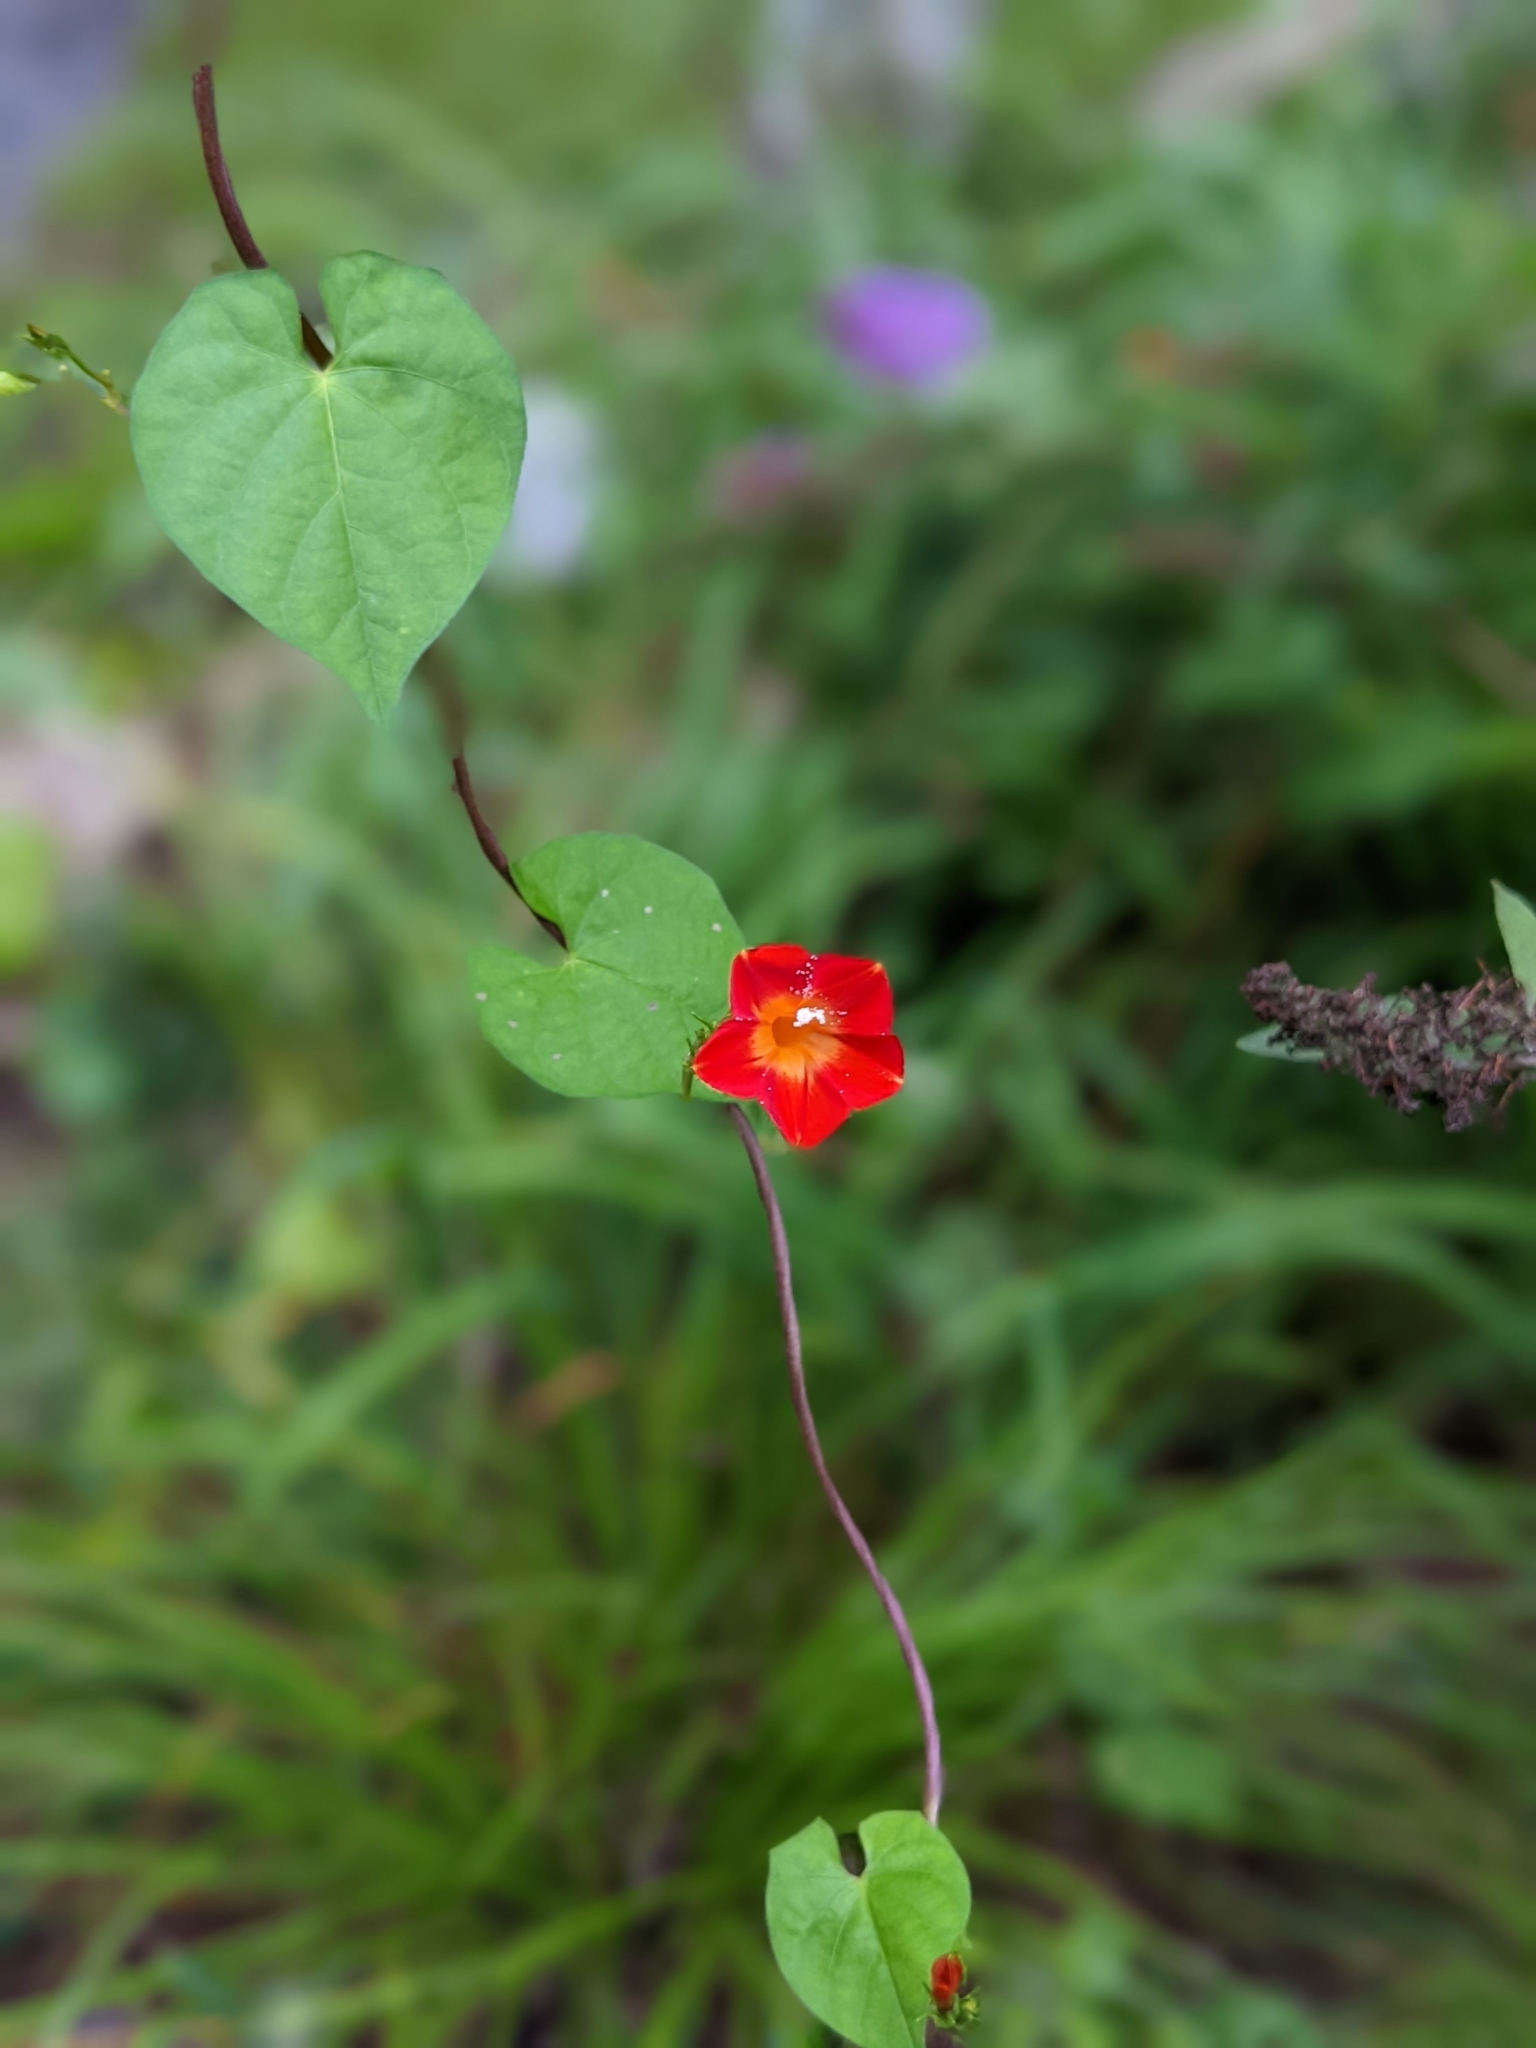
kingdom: Plantae
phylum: Tracheophyta
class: Magnoliopsida
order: Solanales
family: Convolvulaceae
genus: Ipomoea
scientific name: Ipomoea coccinea
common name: Red morning-glory
